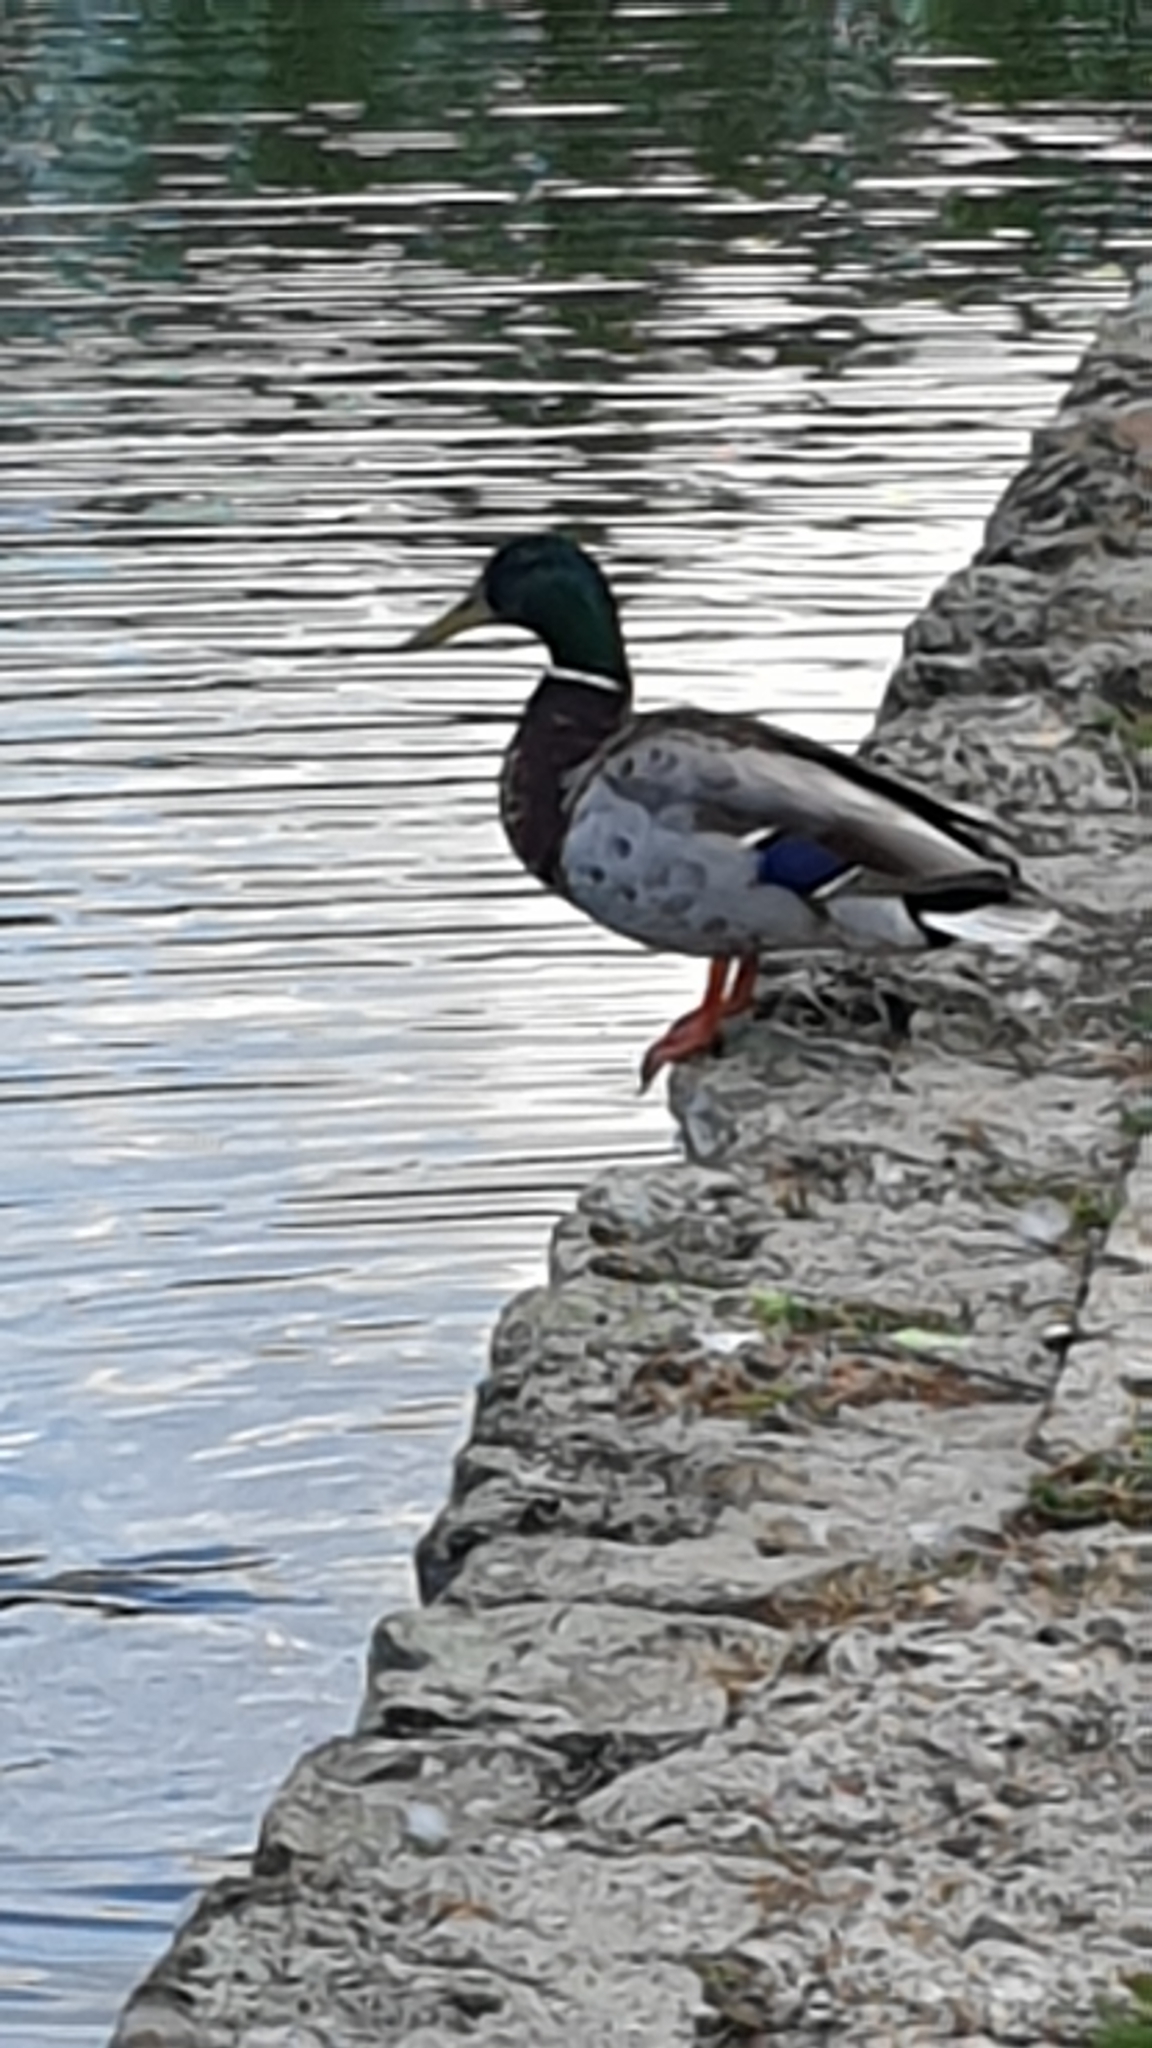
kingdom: Animalia
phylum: Chordata
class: Aves
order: Anseriformes
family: Anatidae
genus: Anas
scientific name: Anas platyrhynchos
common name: Mallard
